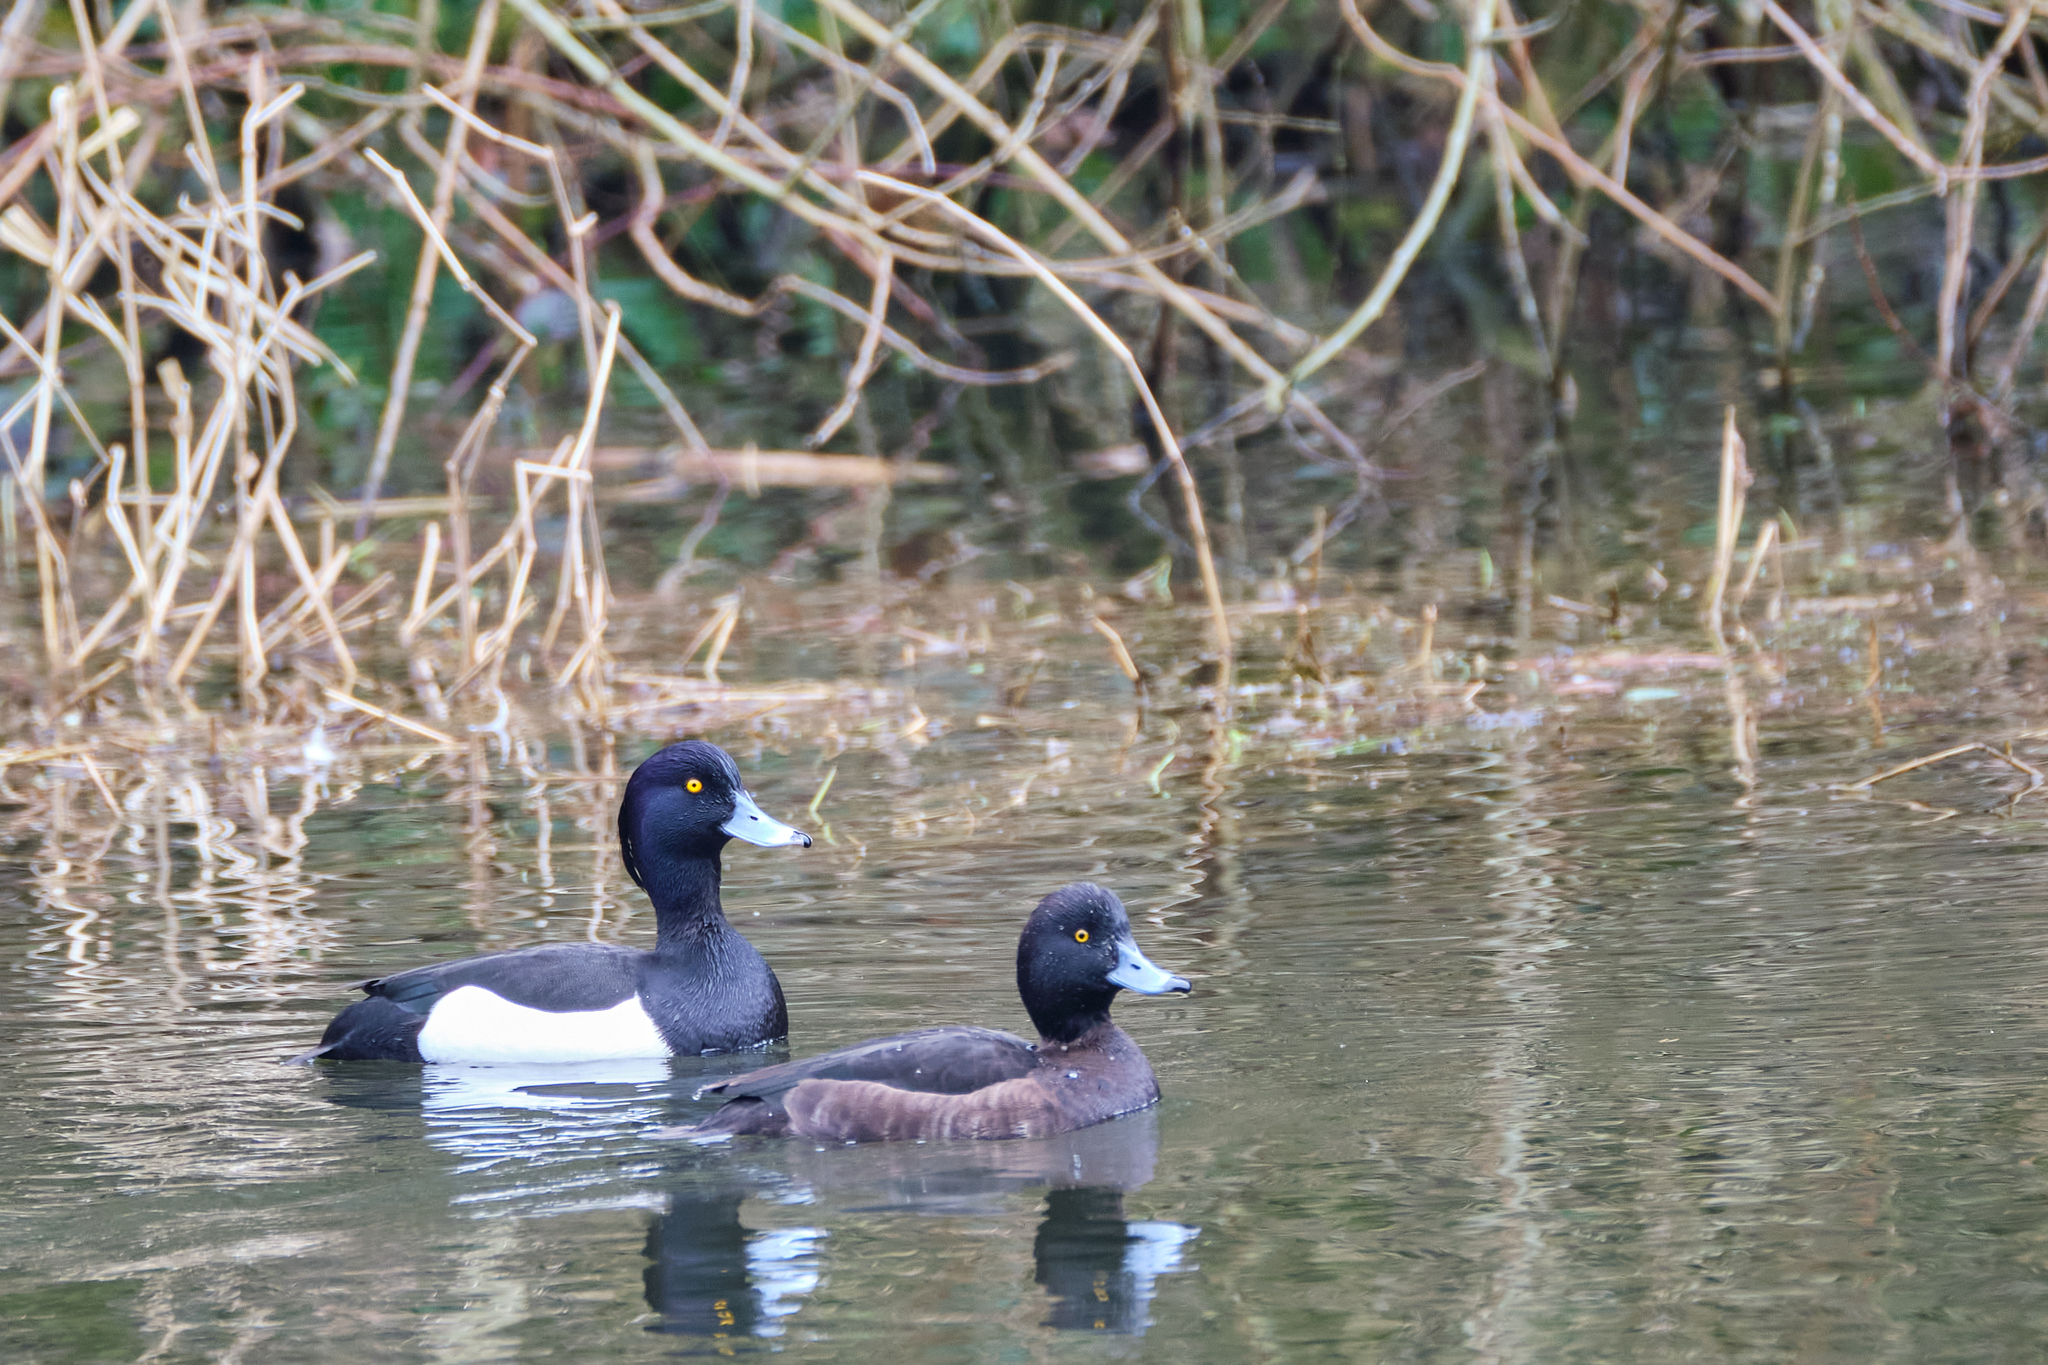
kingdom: Animalia
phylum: Chordata
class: Aves
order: Anseriformes
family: Anatidae
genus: Aythya
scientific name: Aythya fuligula
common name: Tufted duck
